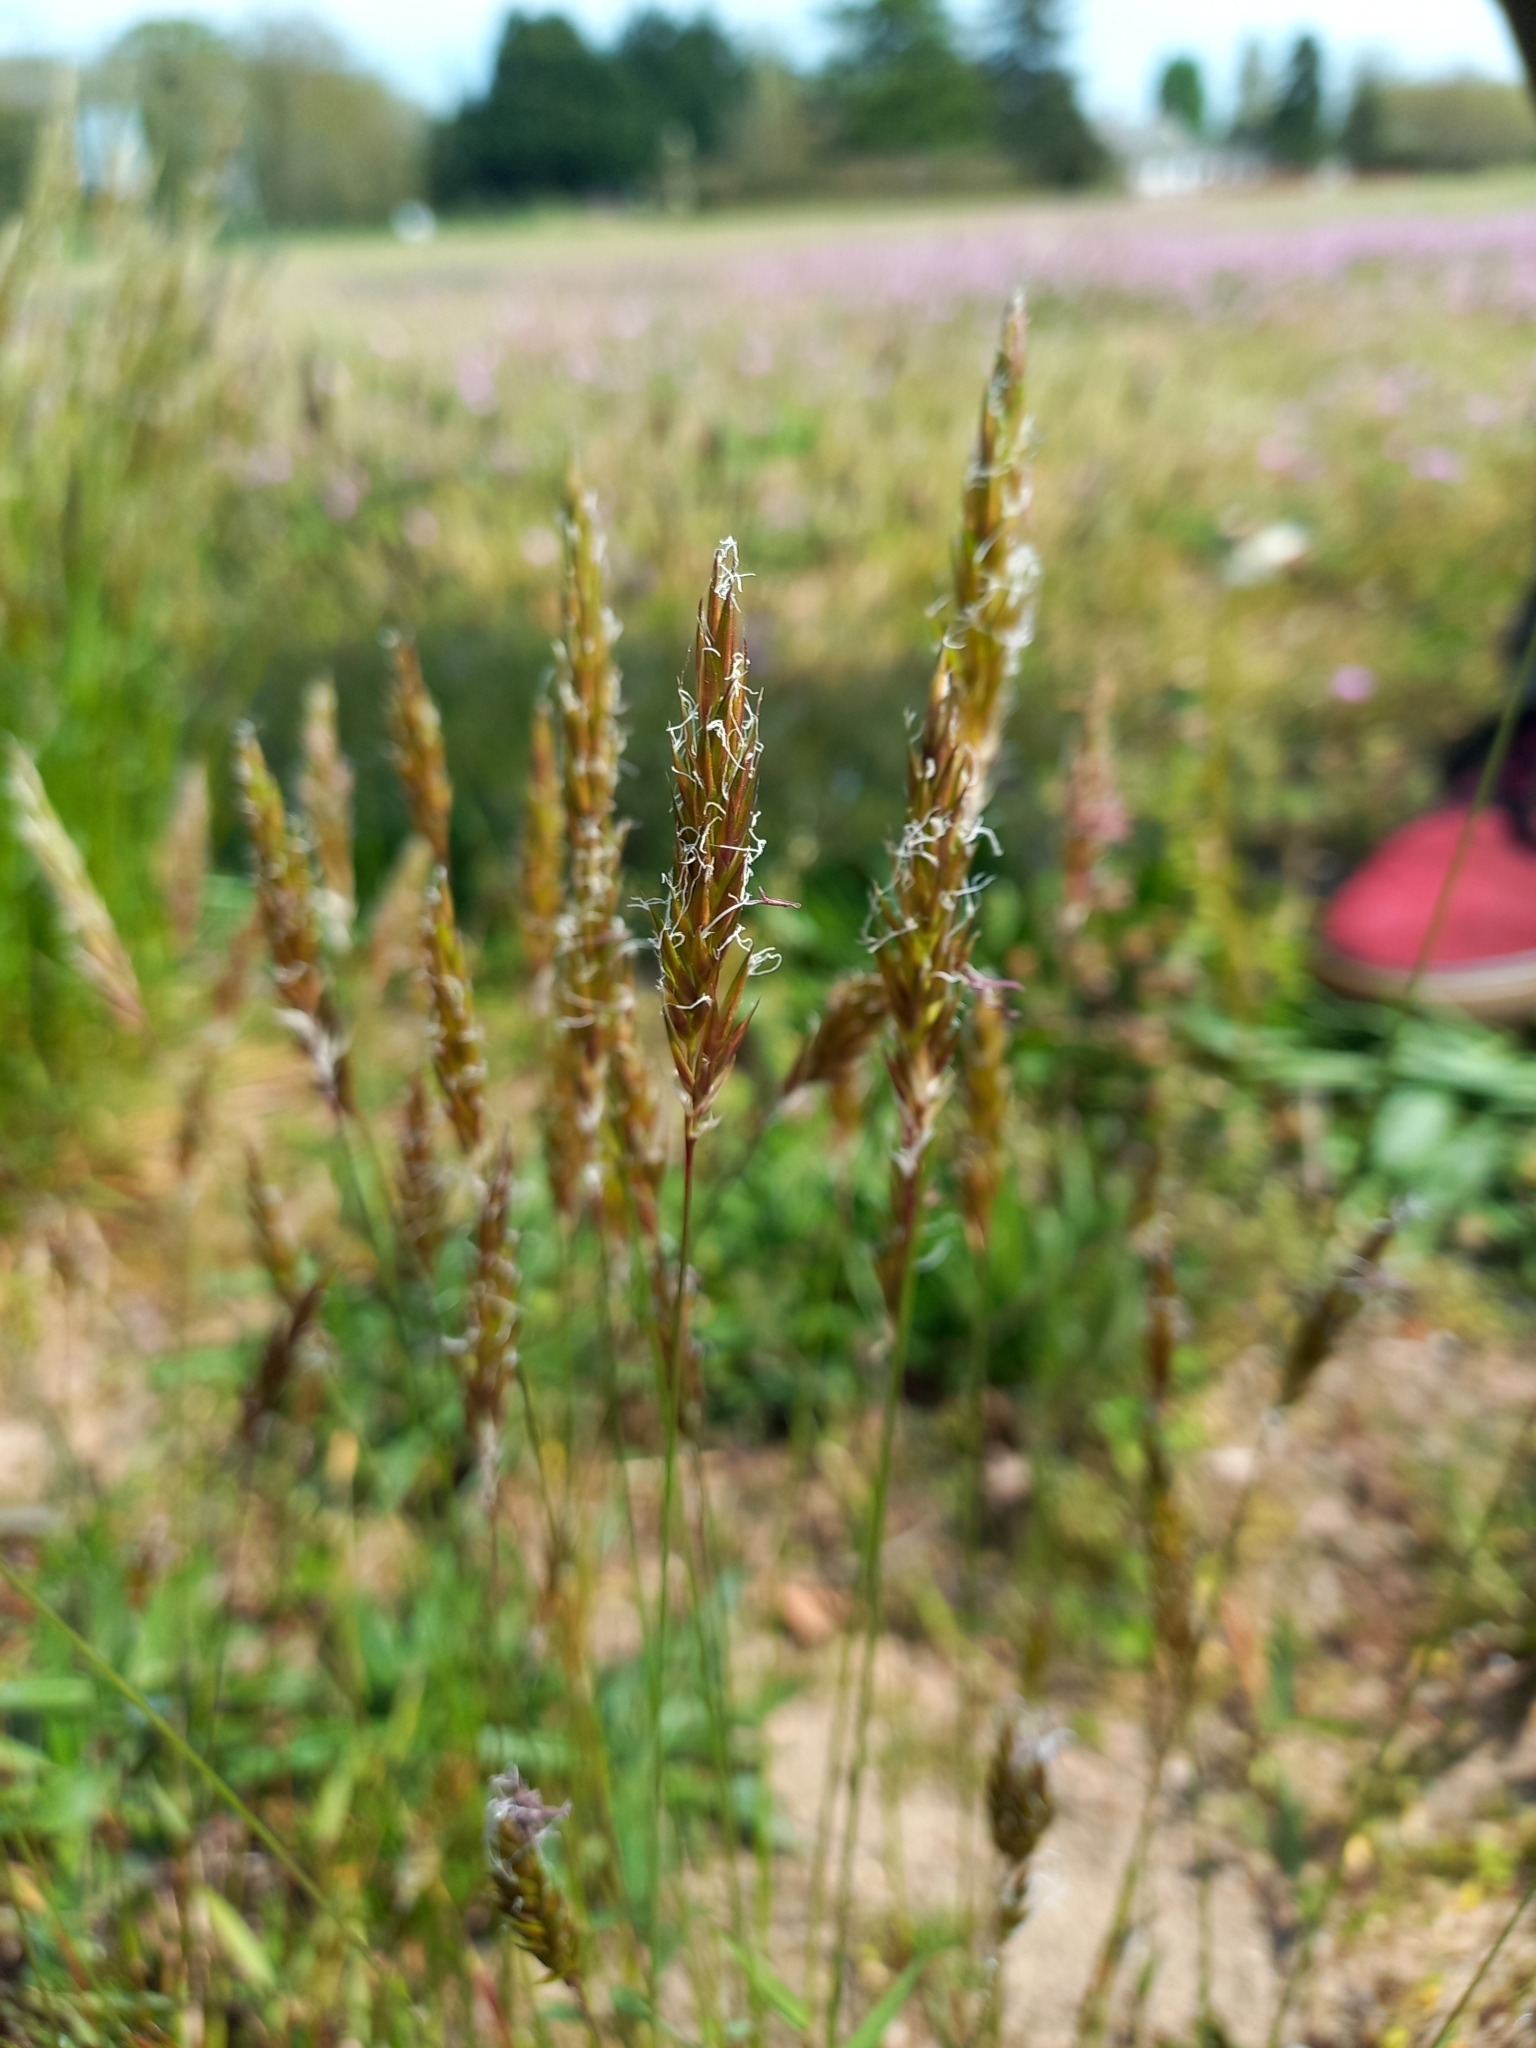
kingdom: Plantae
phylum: Tracheophyta
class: Liliopsida
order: Poales
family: Poaceae
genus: Anthoxanthum
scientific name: Anthoxanthum odoratum
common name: Sweet vernalgrass
